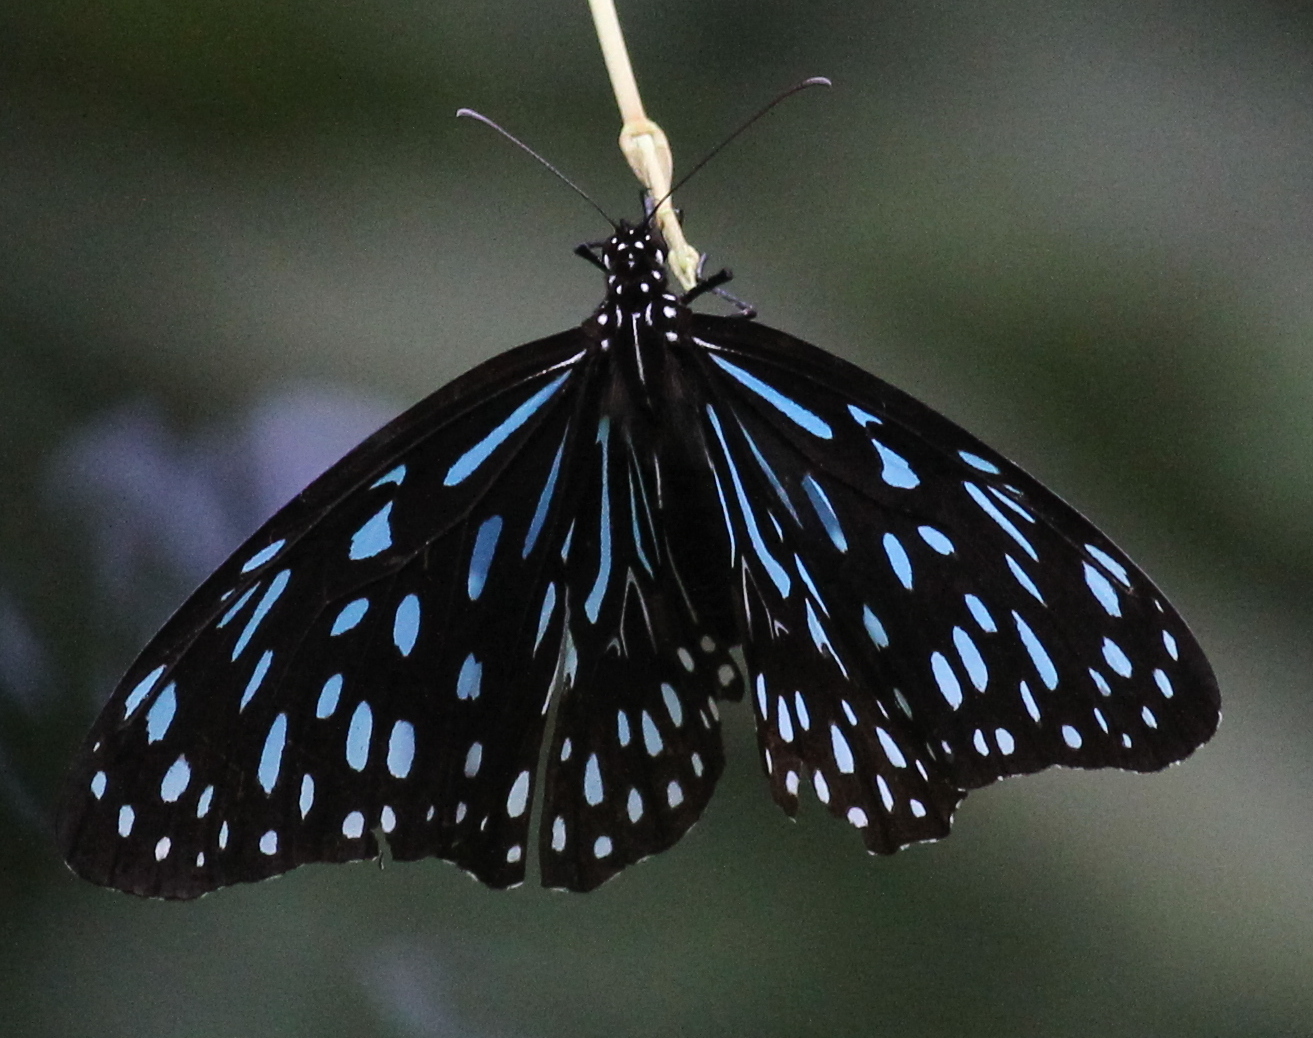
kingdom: Animalia
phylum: Arthropoda
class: Insecta
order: Lepidoptera
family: Nymphalidae
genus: Tirumala
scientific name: Tirumala septentrionis
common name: Dark blue tiger butterfly
